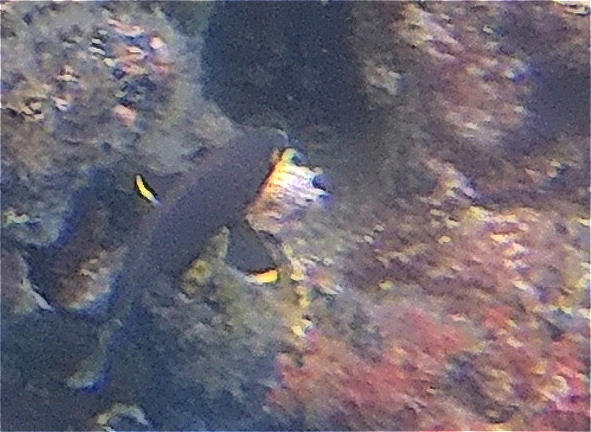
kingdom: Animalia
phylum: Chordata
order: Perciformes
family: Pomacentridae
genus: Stegastes
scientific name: Stegastes beebei
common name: Galapagos ringtail damselfish
